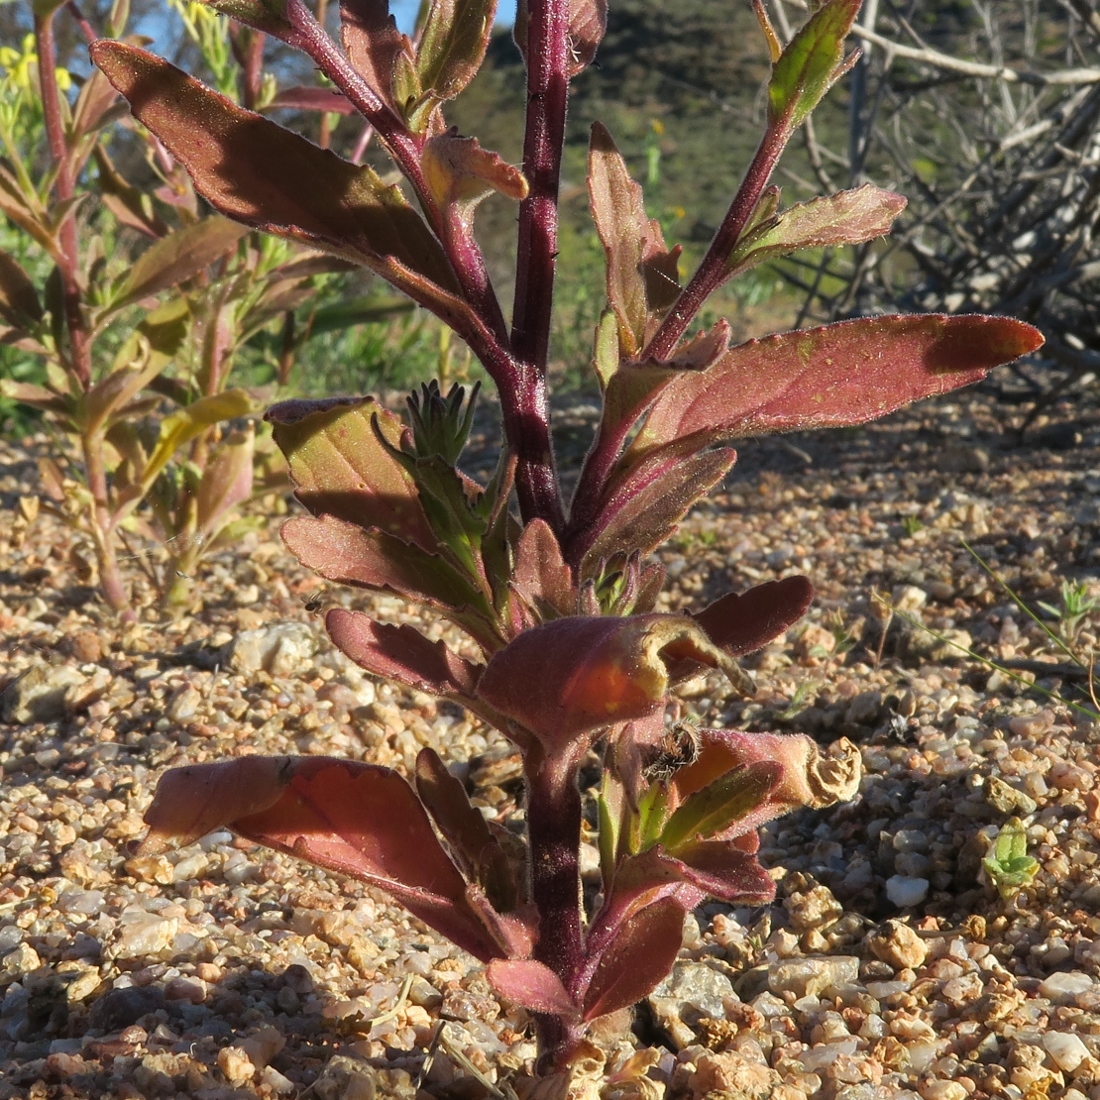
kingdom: Plantae
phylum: Tracheophyta
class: Magnoliopsida
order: Lamiales
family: Scrophulariaceae
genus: Lyperia
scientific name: Lyperia tristis
